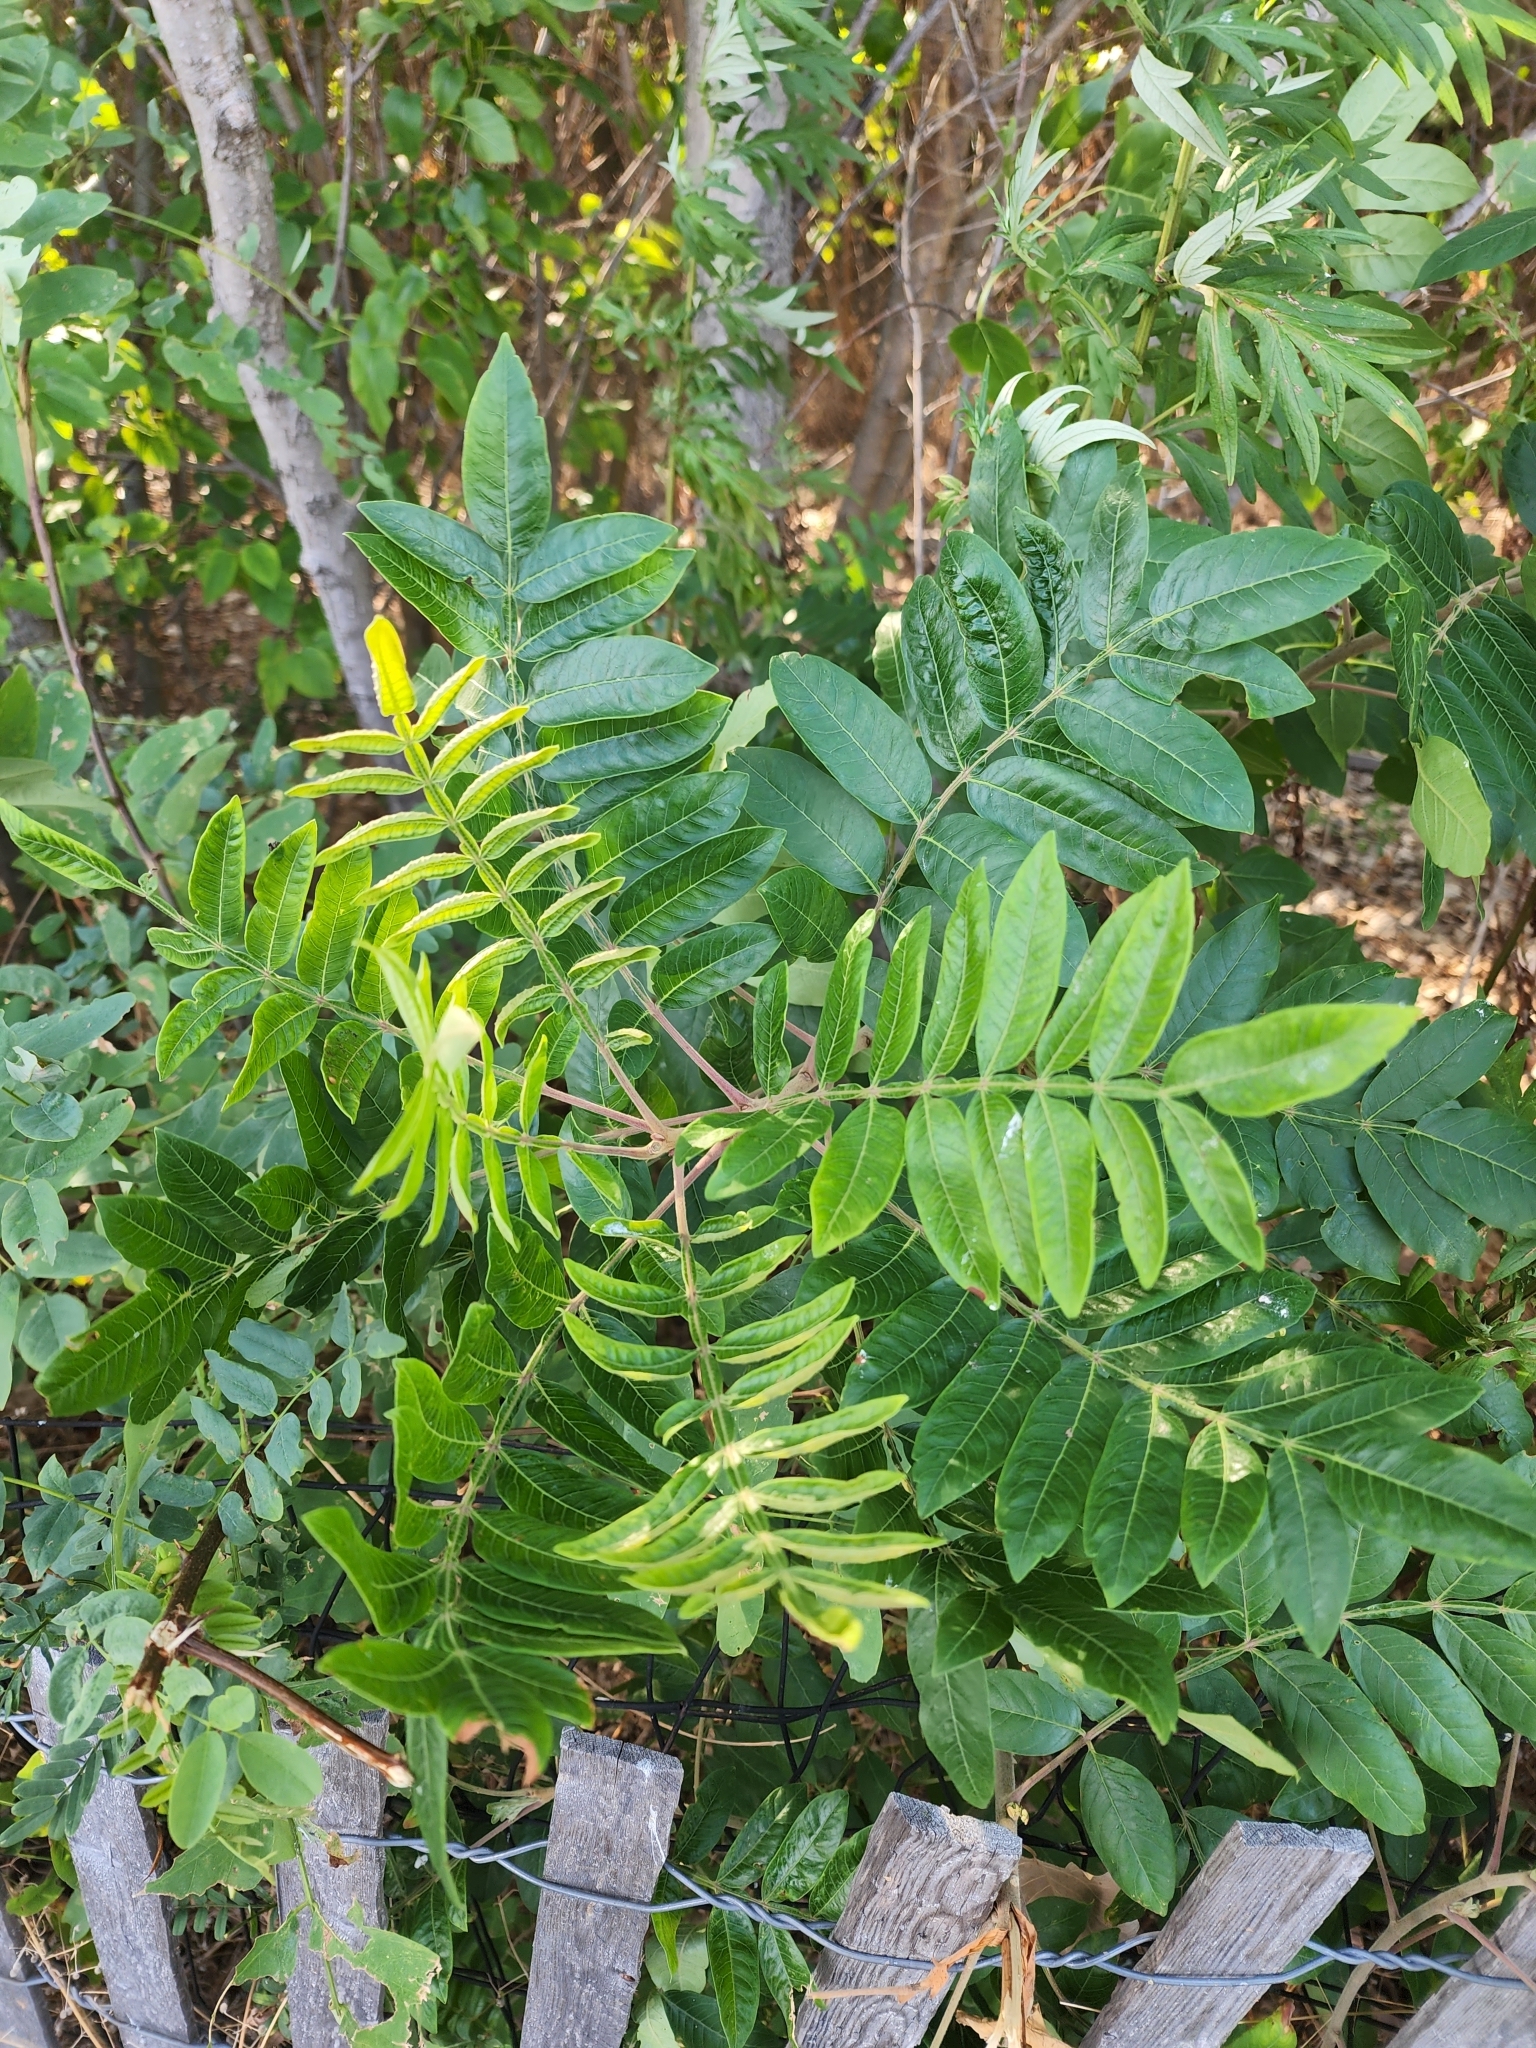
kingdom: Plantae
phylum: Tracheophyta
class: Magnoliopsida
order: Sapindales
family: Anacardiaceae
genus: Rhus
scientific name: Rhus copallina
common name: Shining sumac
